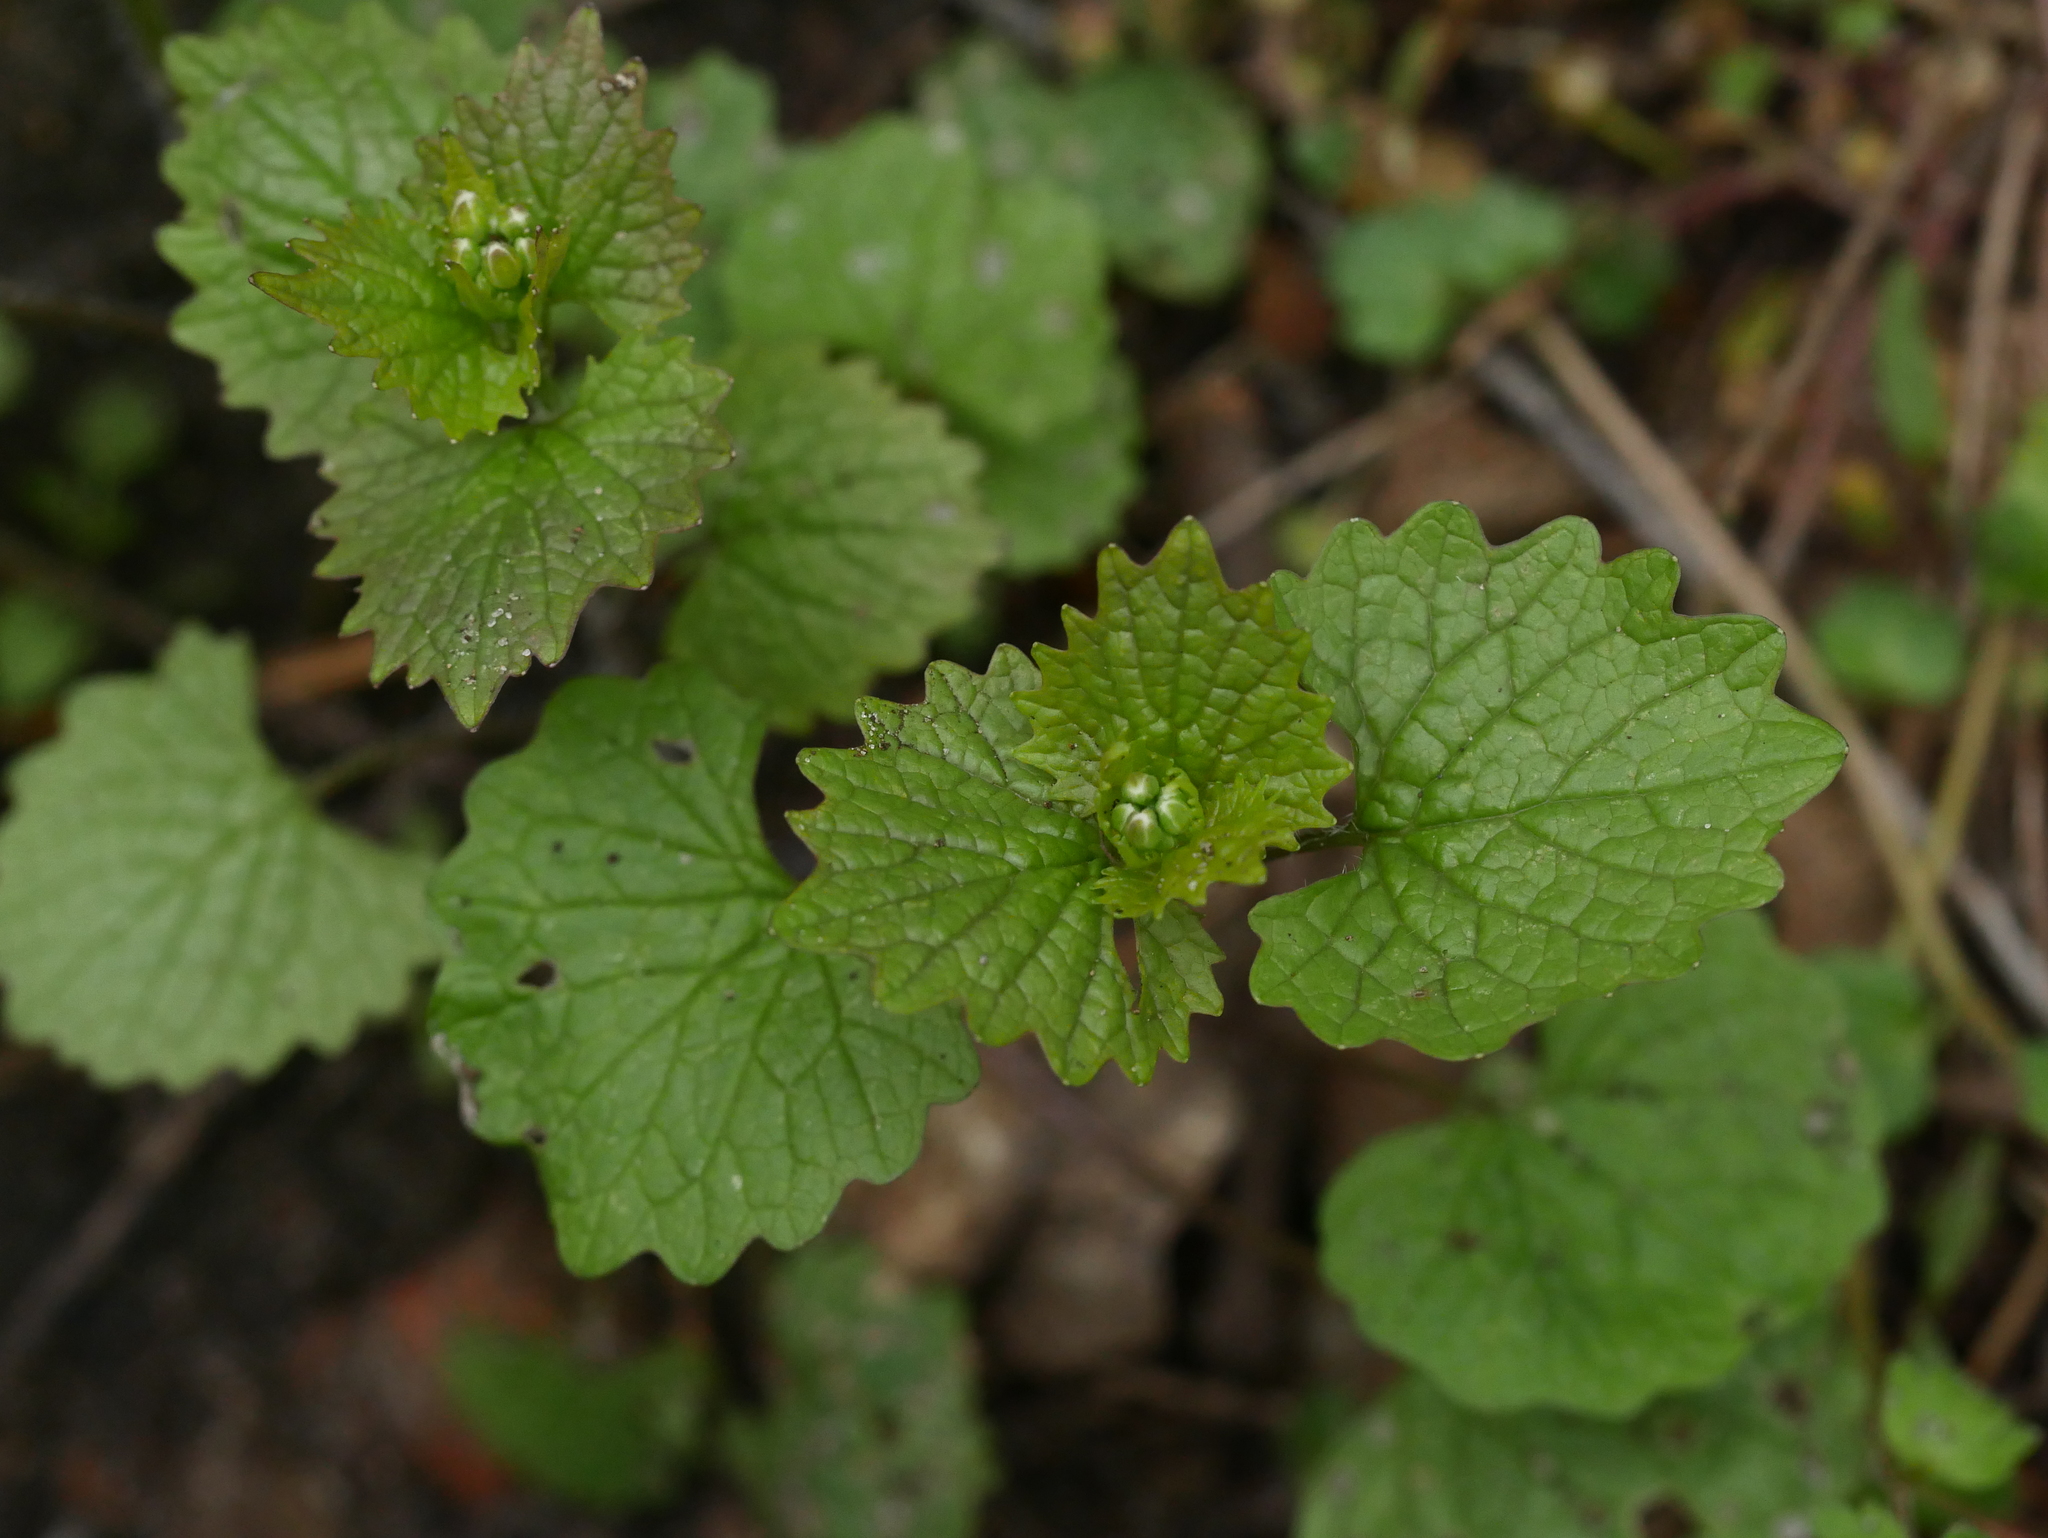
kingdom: Plantae
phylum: Tracheophyta
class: Magnoliopsida
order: Brassicales
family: Brassicaceae
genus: Alliaria
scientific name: Alliaria petiolata
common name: Garlic mustard
